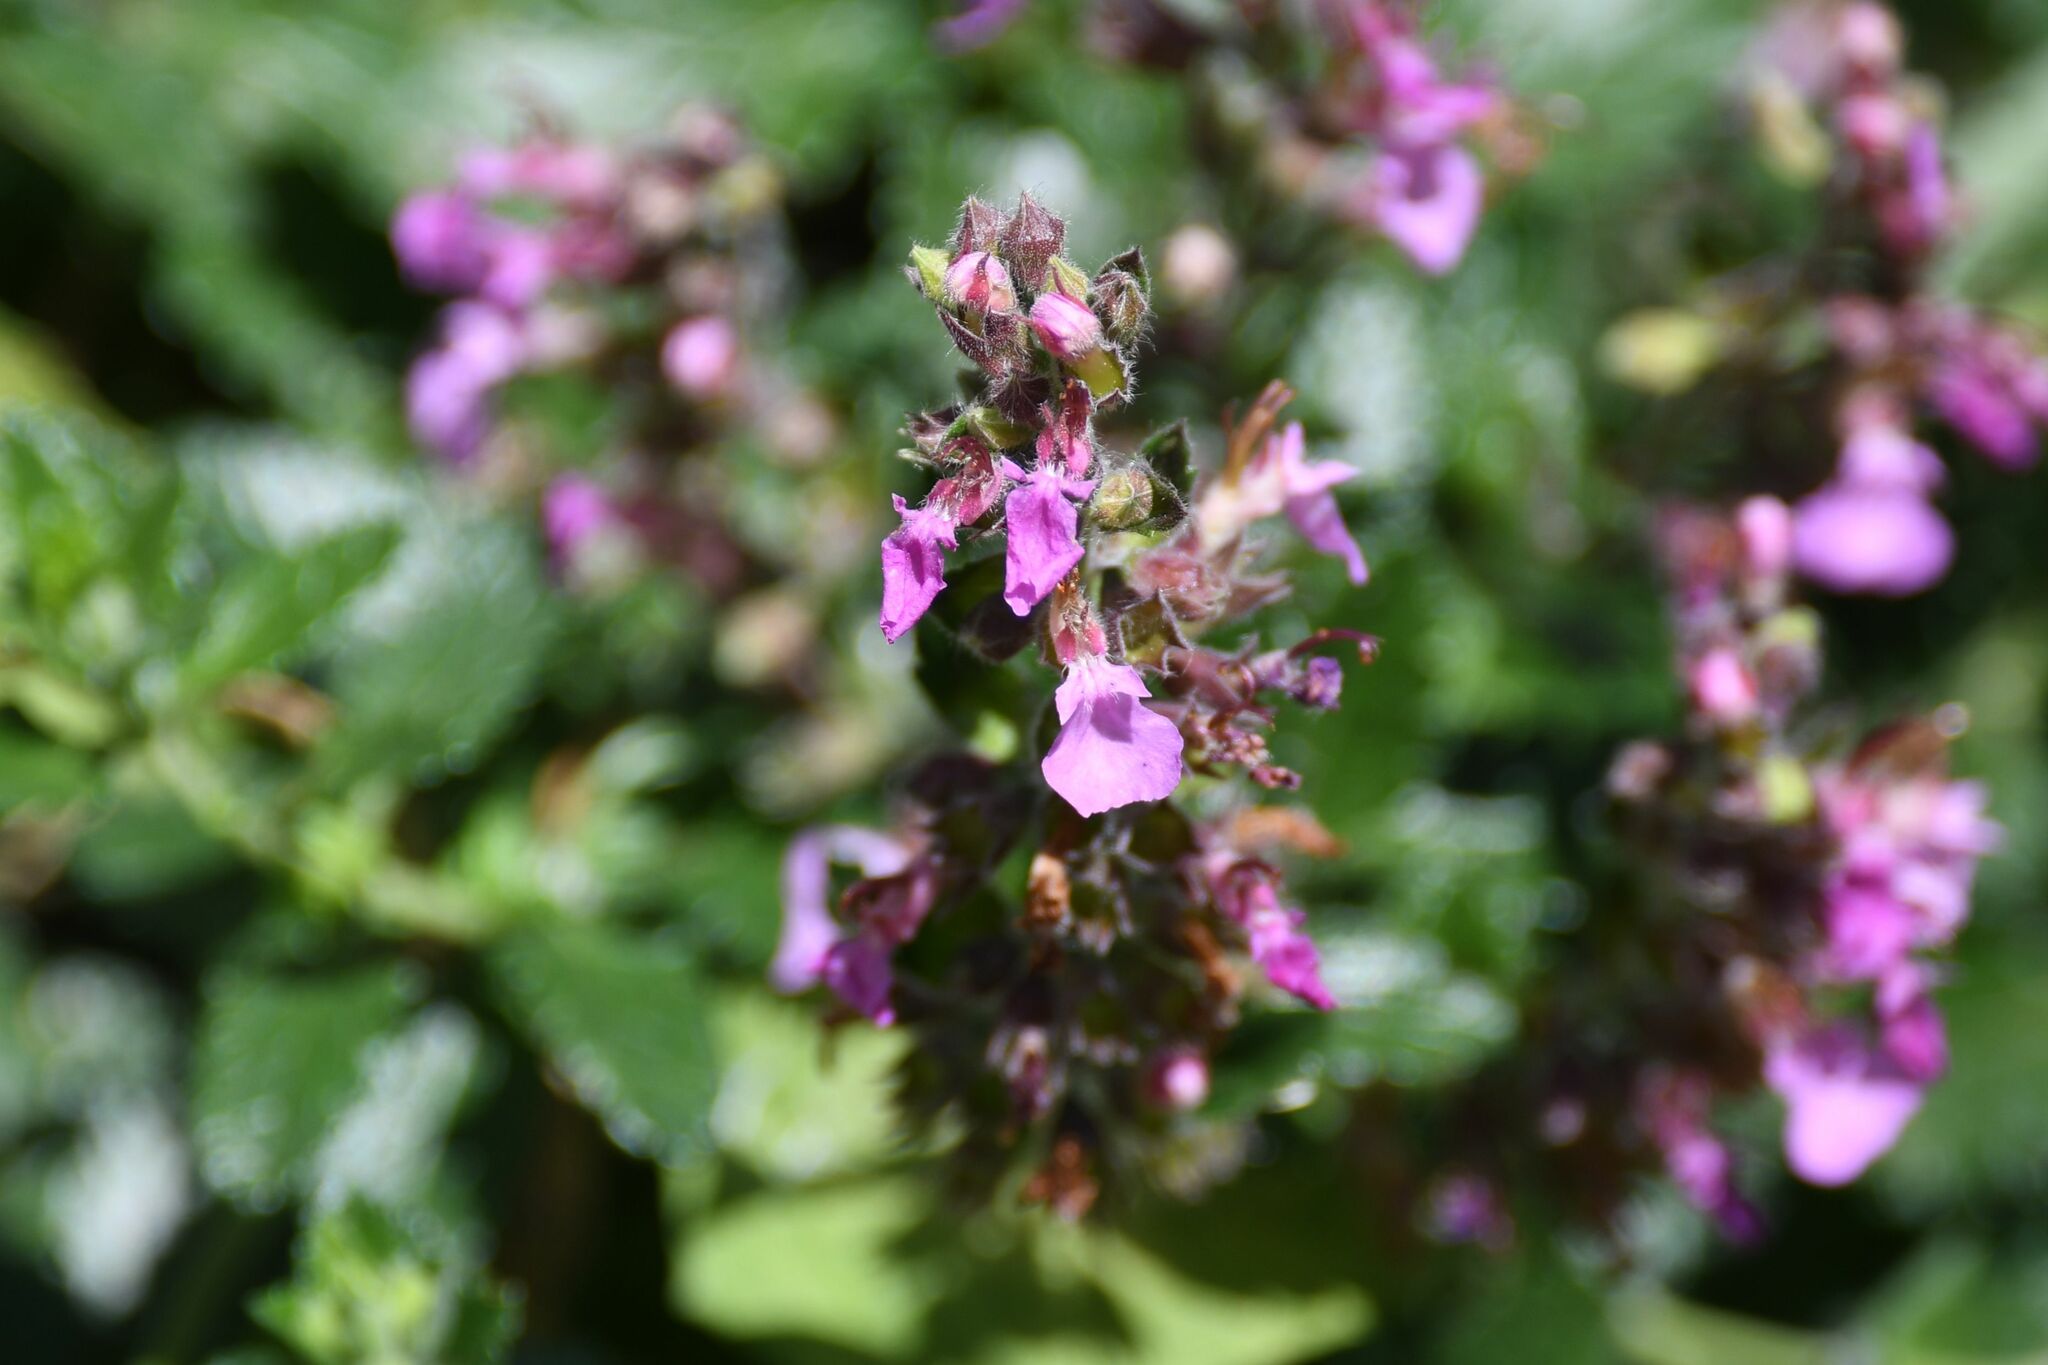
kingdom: Plantae
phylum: Tracheophyta
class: Magnoliopsida
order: Lamiales
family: Lamiaceae
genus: Teucrium
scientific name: Teucrium chamaedrys
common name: Wall germander
